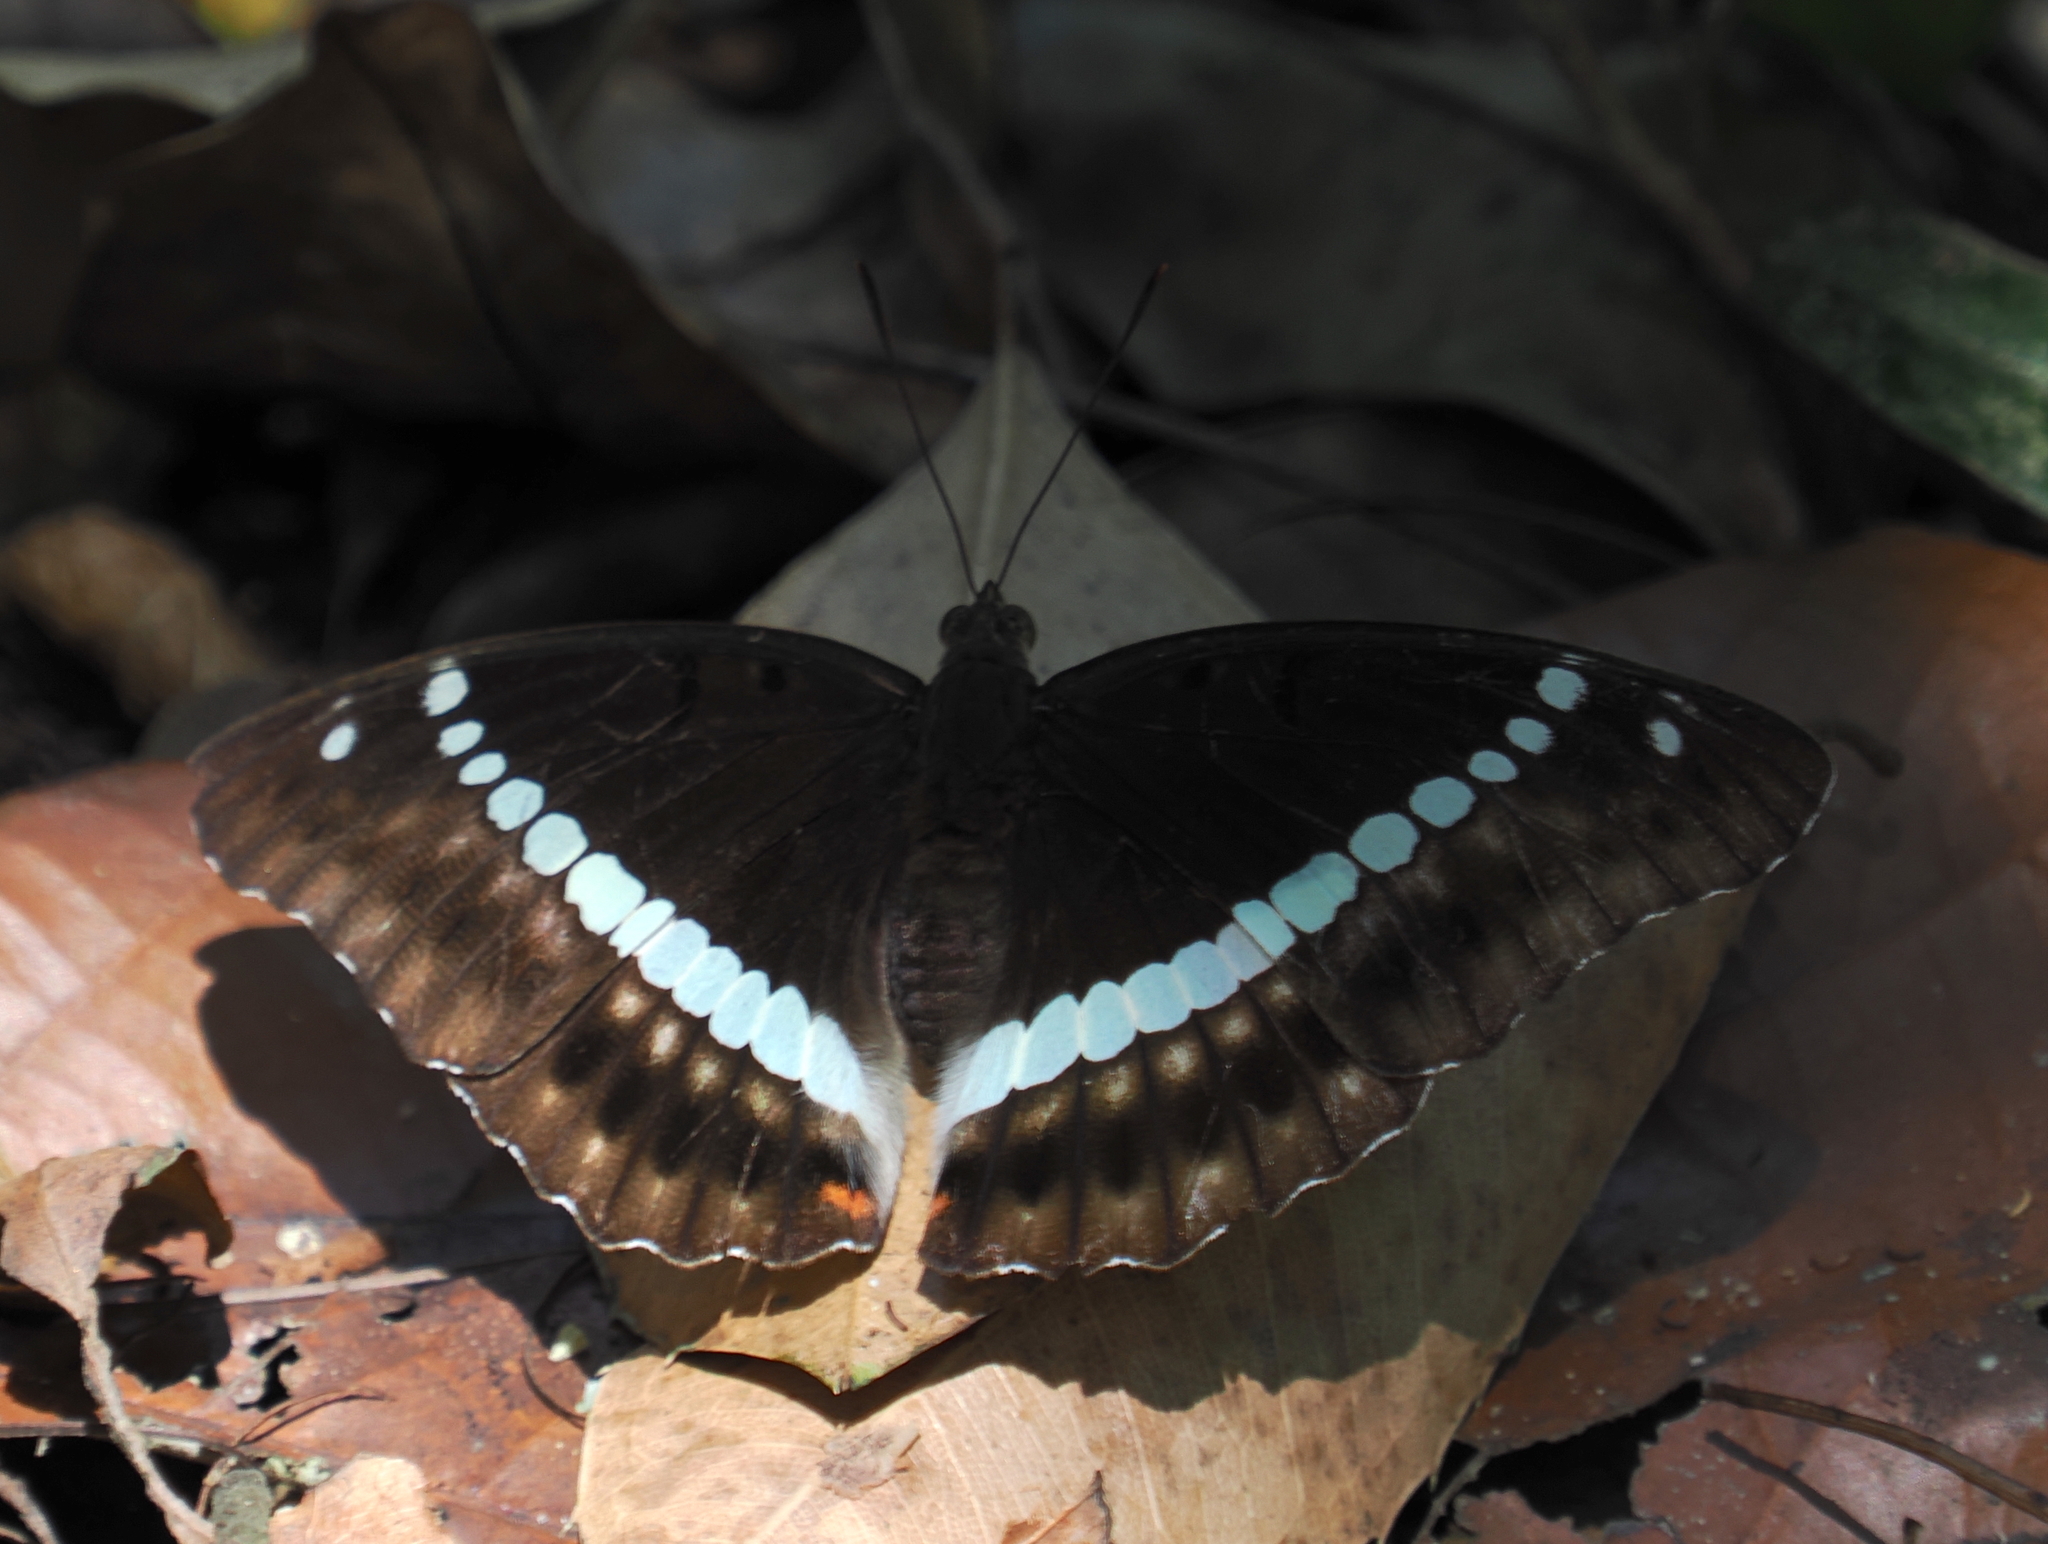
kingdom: Animalia
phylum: Arthropoda
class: Insecta
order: Lepidoptera
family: Nymphalidae
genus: Euthalia
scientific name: Euthalia recta
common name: Redtail marquis
